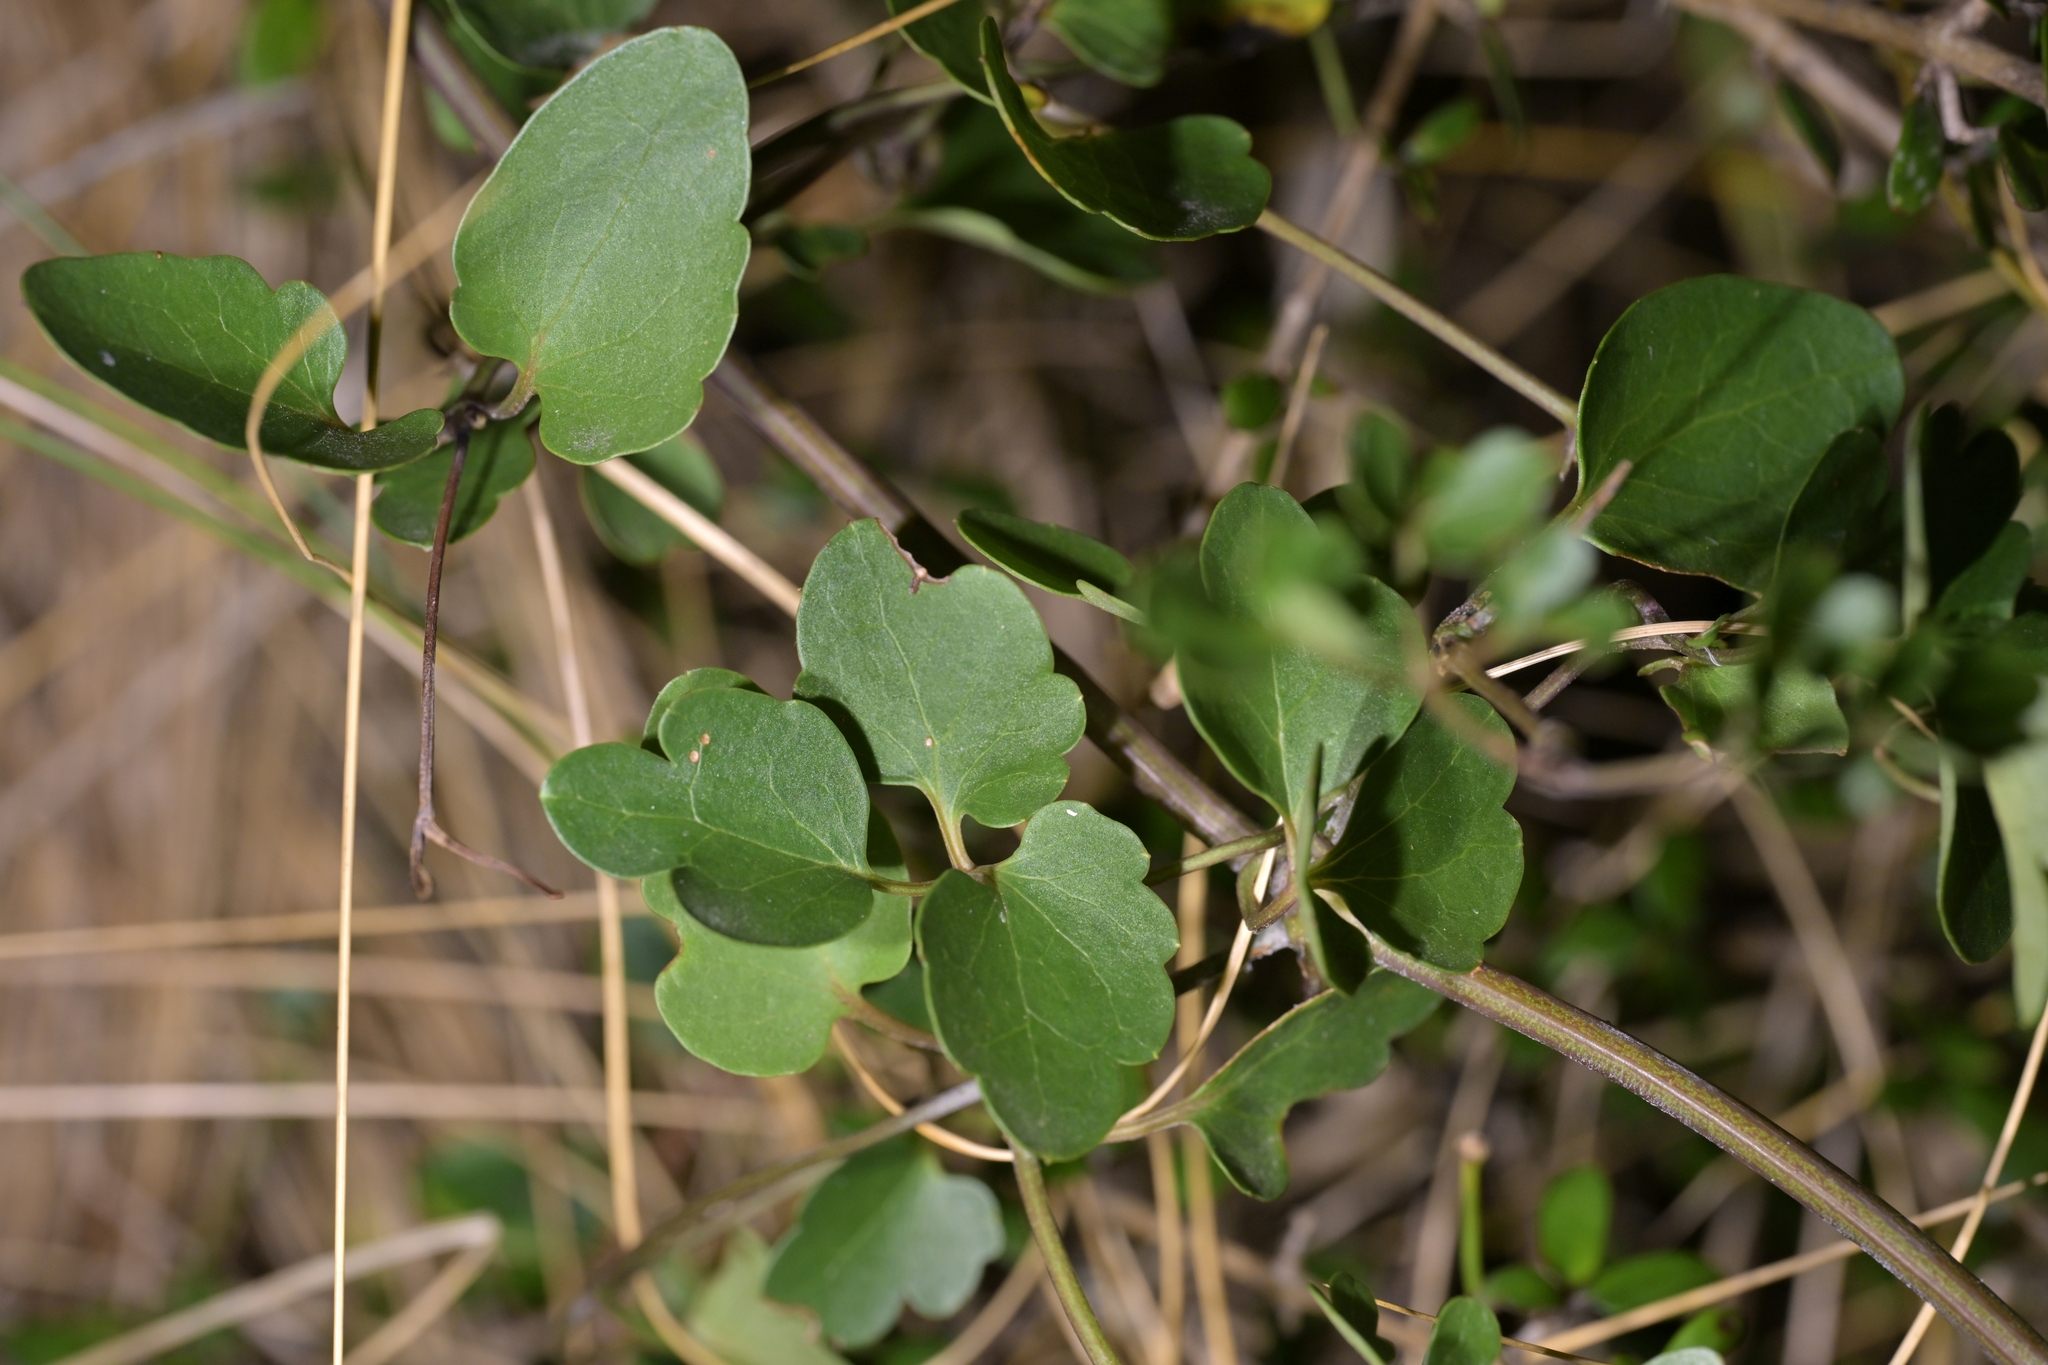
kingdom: Plantae
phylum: Tracheophyta
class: Magnoliopsida
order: Ranunculales
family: Ranunculaceae
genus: Clematis
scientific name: Clematis forsteri
